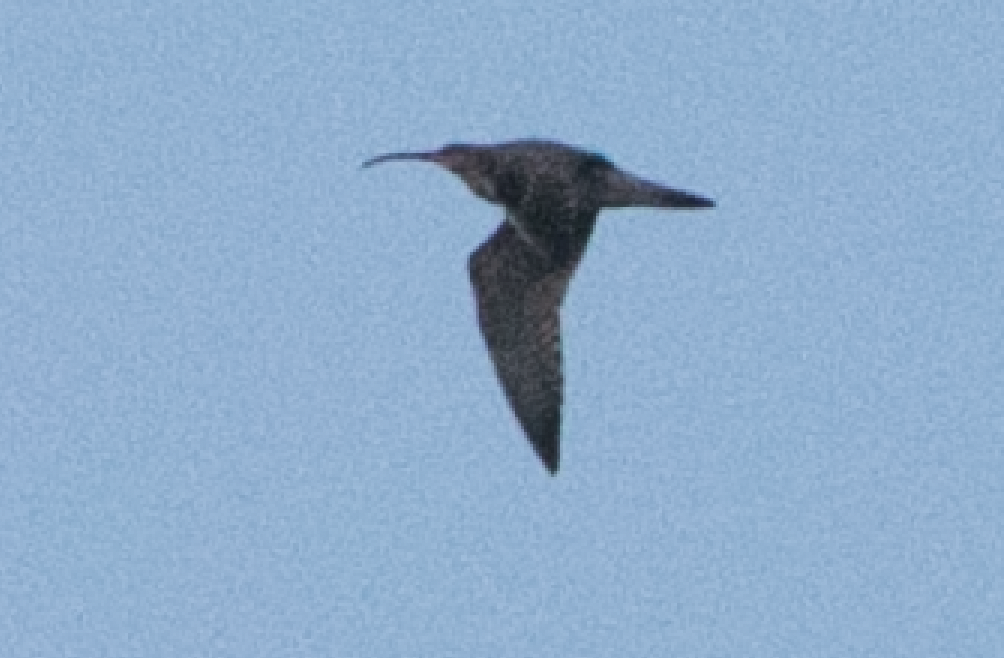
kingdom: Animalia
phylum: Chordata
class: Aves
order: Charadriiformes
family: Scolopacidae
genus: Numenius
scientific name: Numenius arquata
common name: Eurasian curlew
